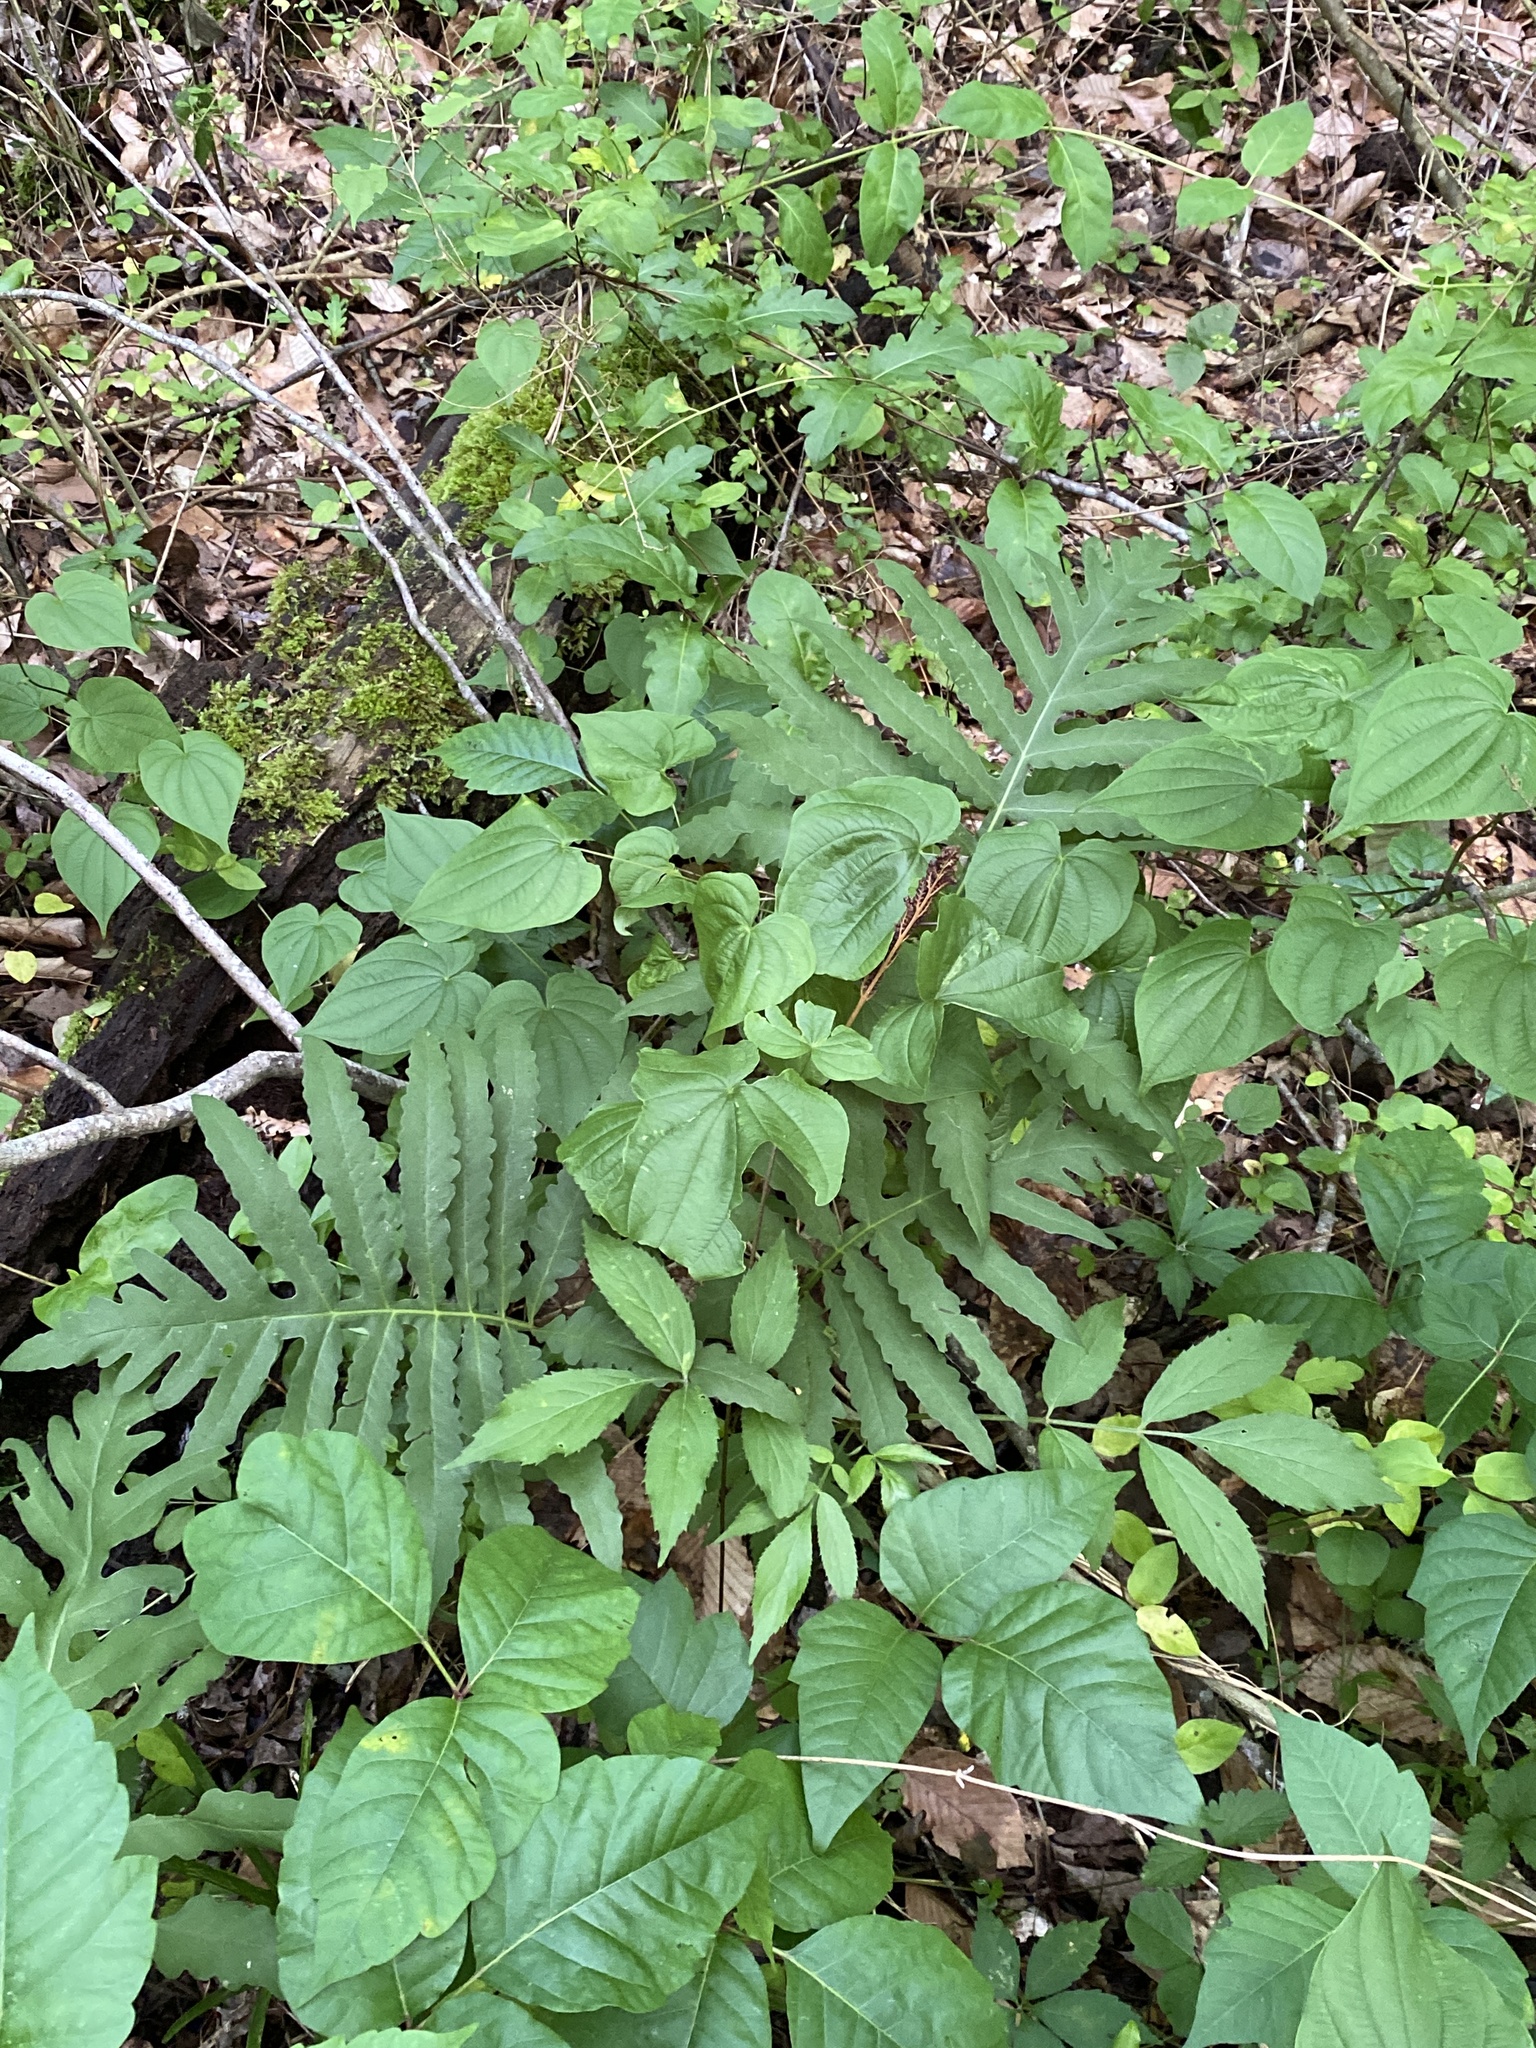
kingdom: Plantae
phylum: Tracheophyta
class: Polypodiopsida
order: Polypodiales
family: Onocleaceae
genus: Onoclea
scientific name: Onoclea sensibilis
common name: Sensitive fern
